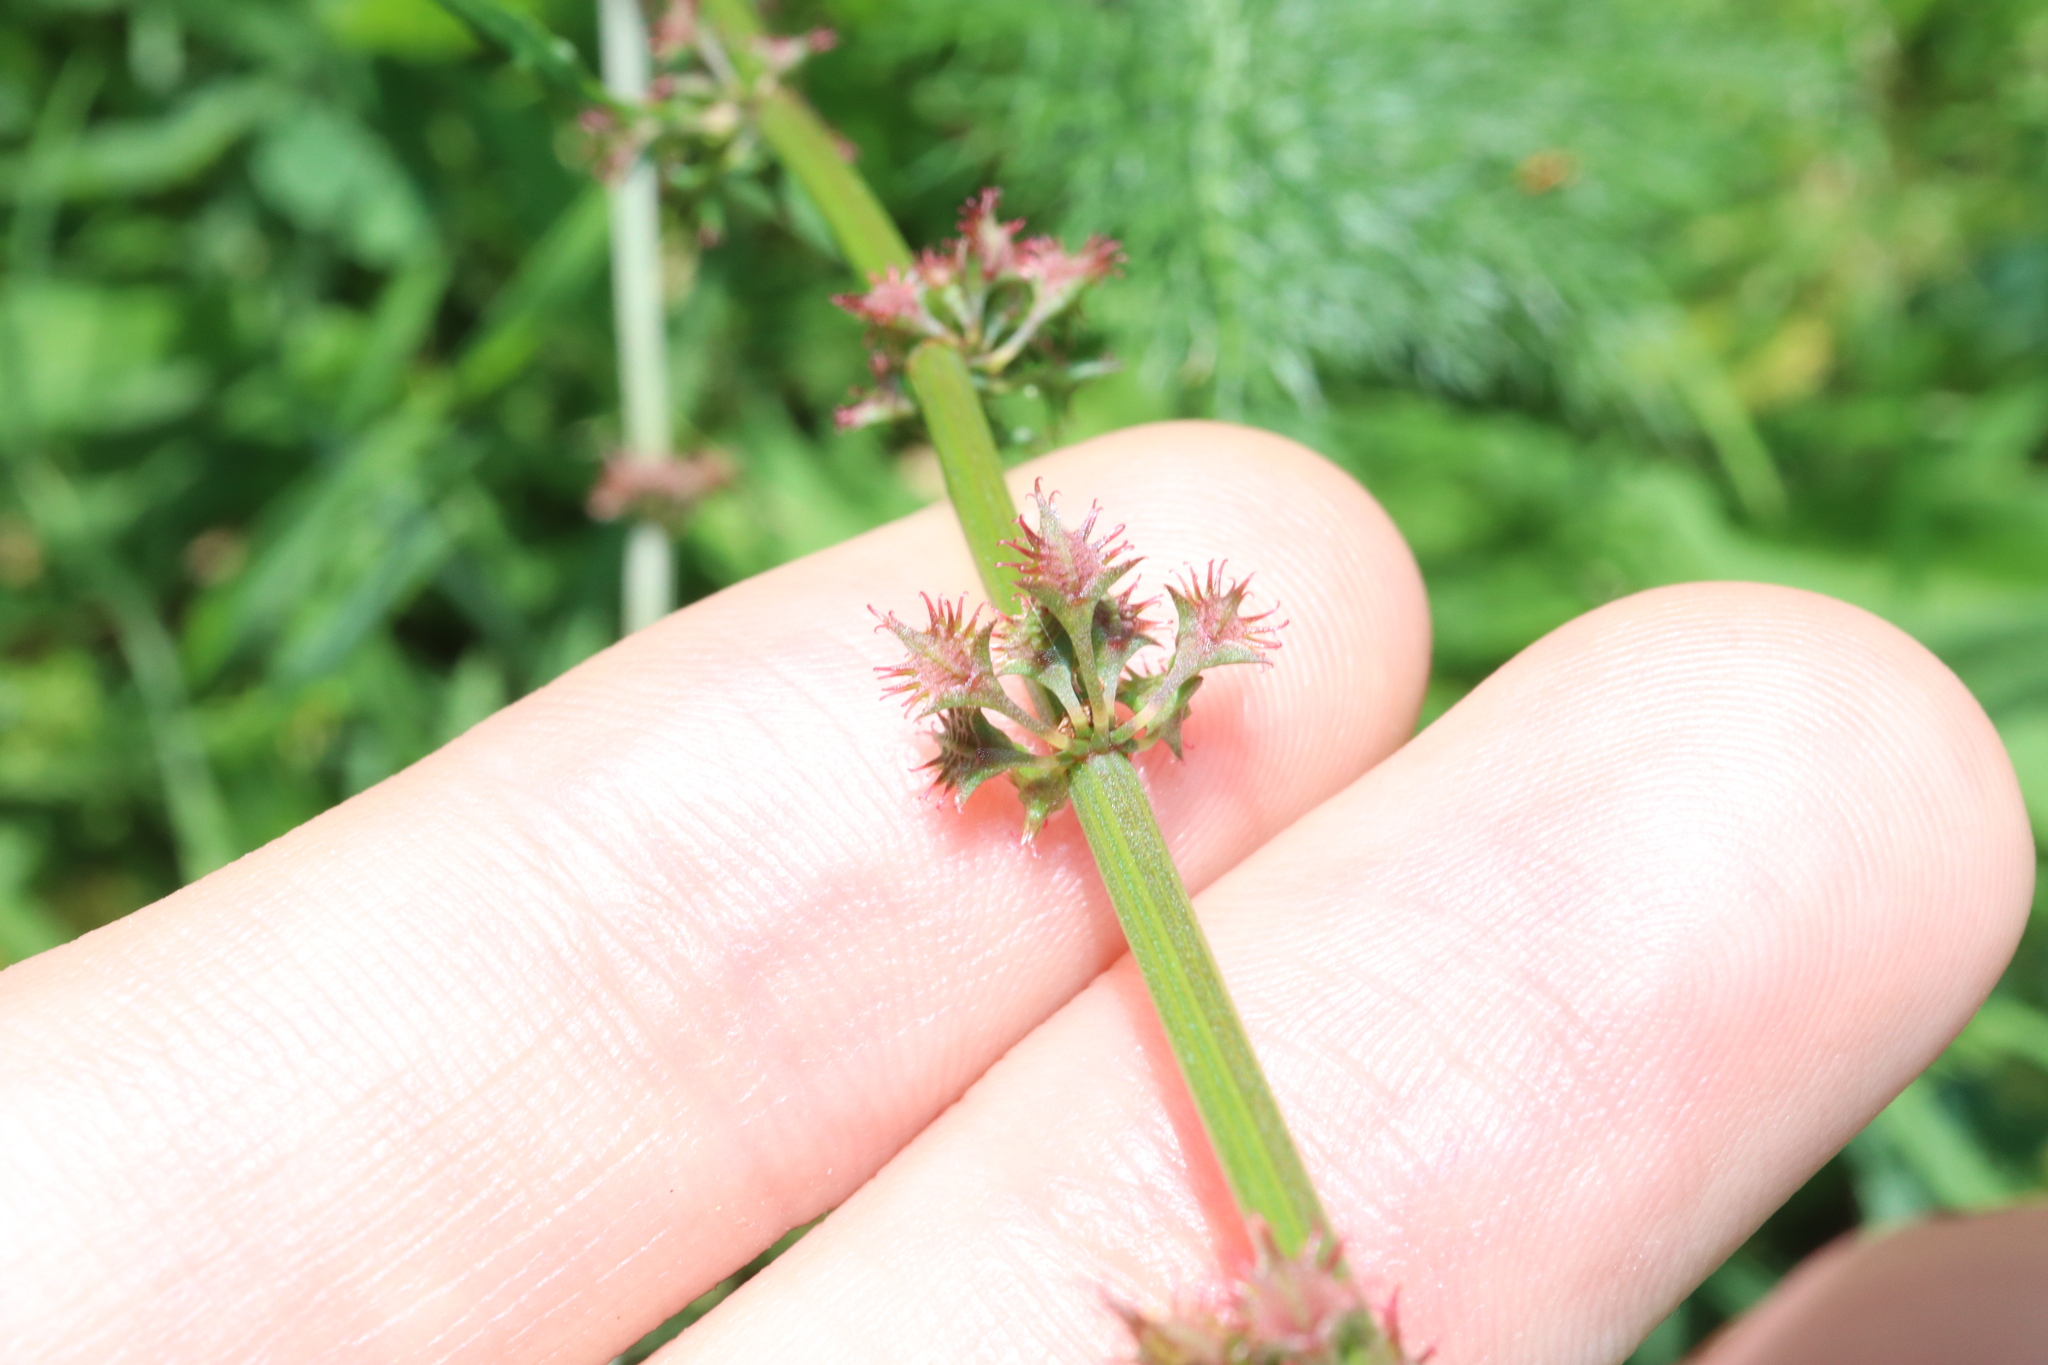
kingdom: Plantae
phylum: Tracheophyta
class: Magnoliopsida
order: Caryophyllales
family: Polygonaceae
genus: Rumex
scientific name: Rumex brownii
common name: Hooked dock
